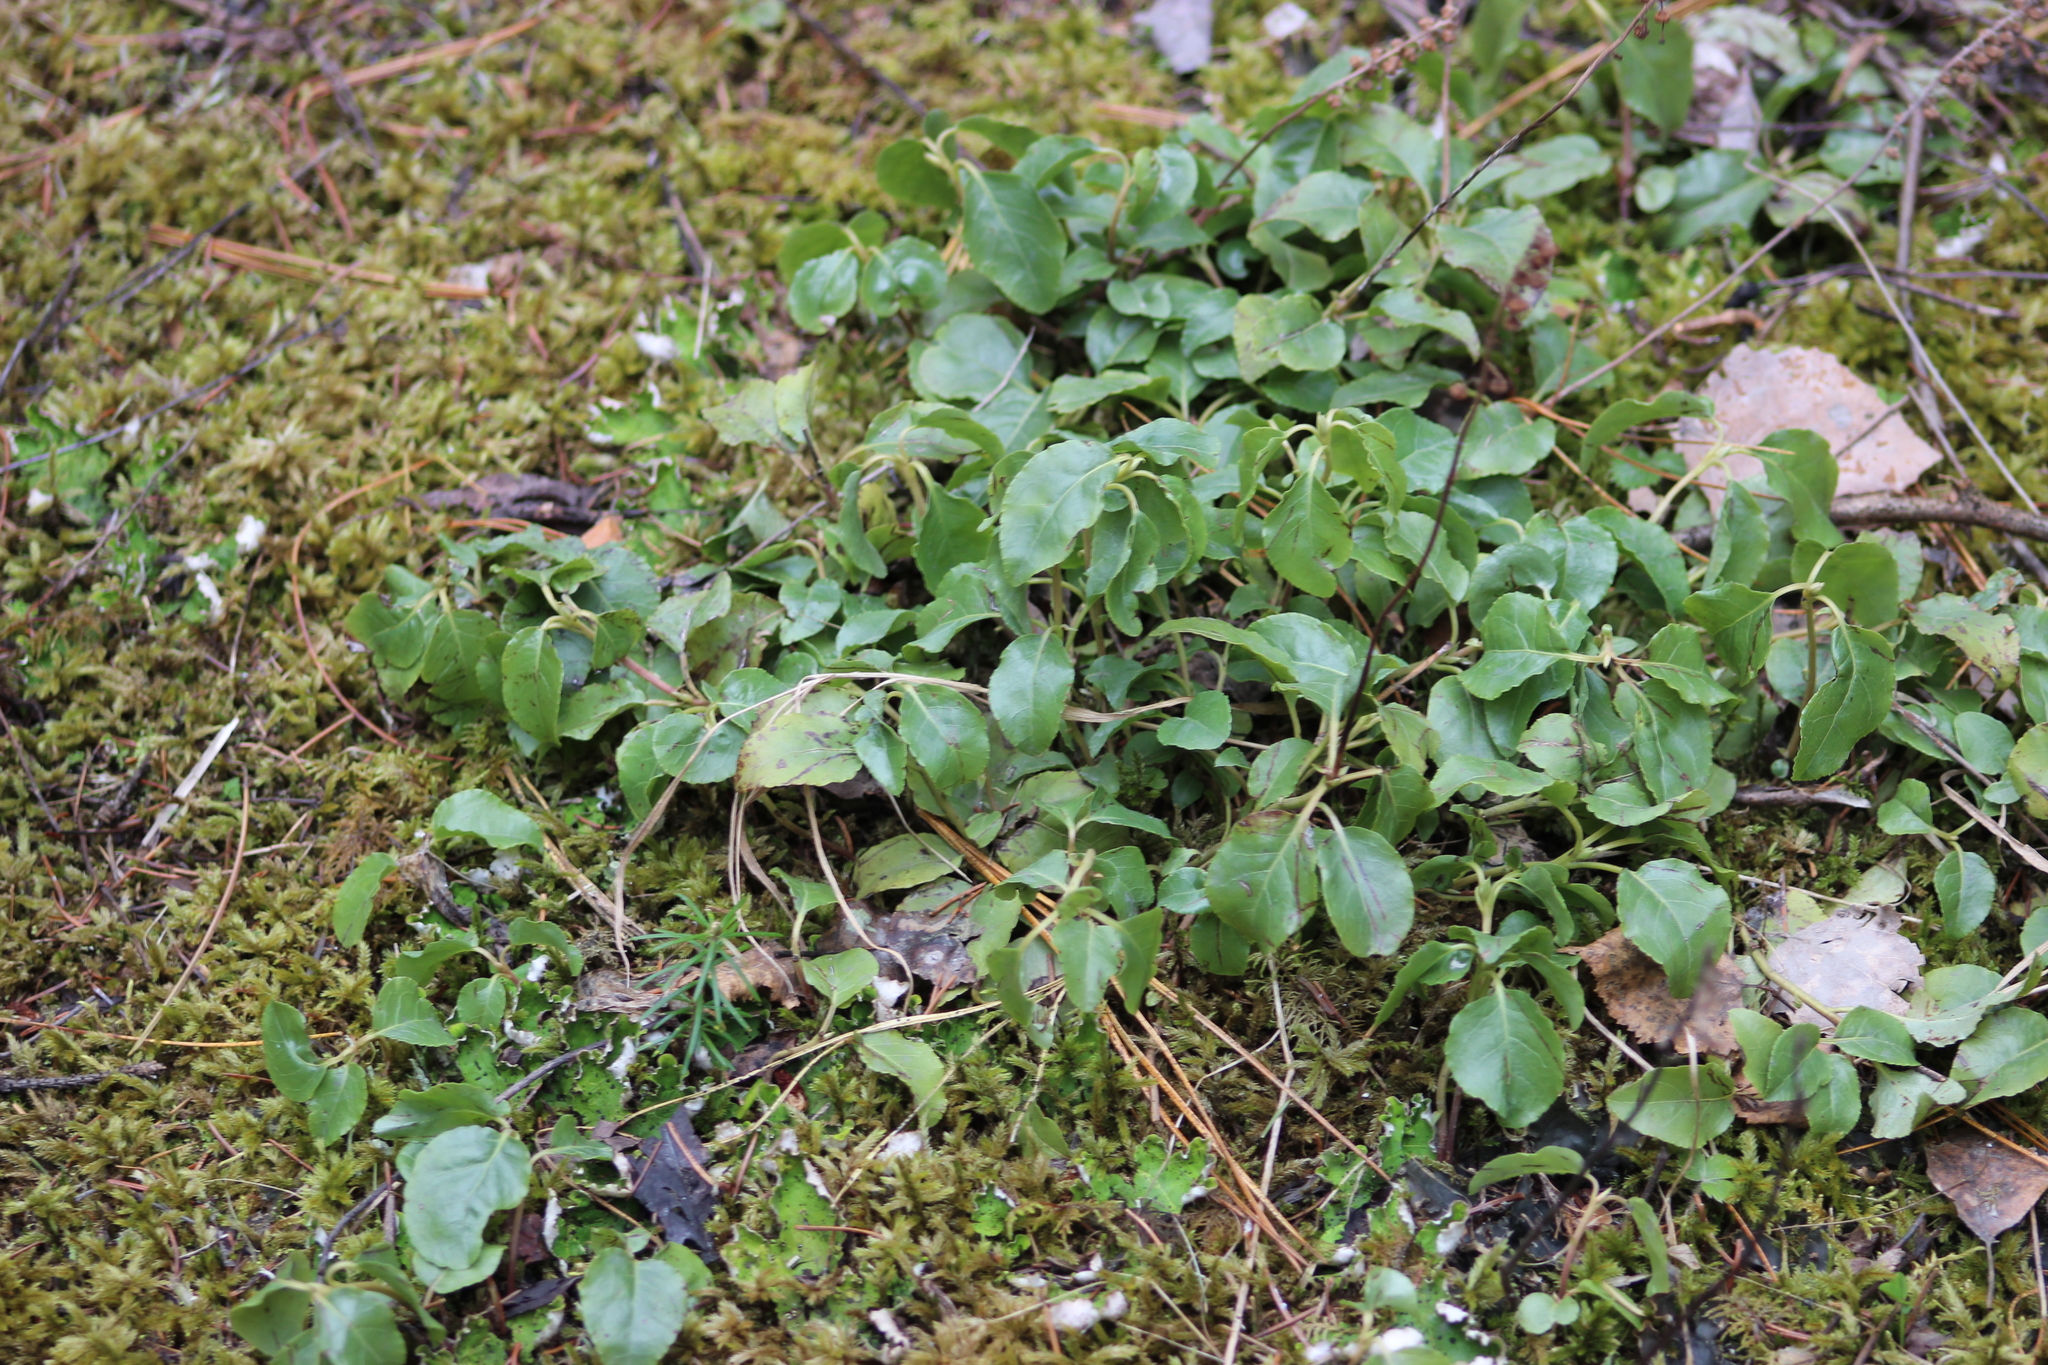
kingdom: Plantae
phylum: Tracheophyta
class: Magnoliopsida
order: Ericales
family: Ericaceae
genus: Orthilia
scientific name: Orthilia secunda
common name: One-sided orthilia
